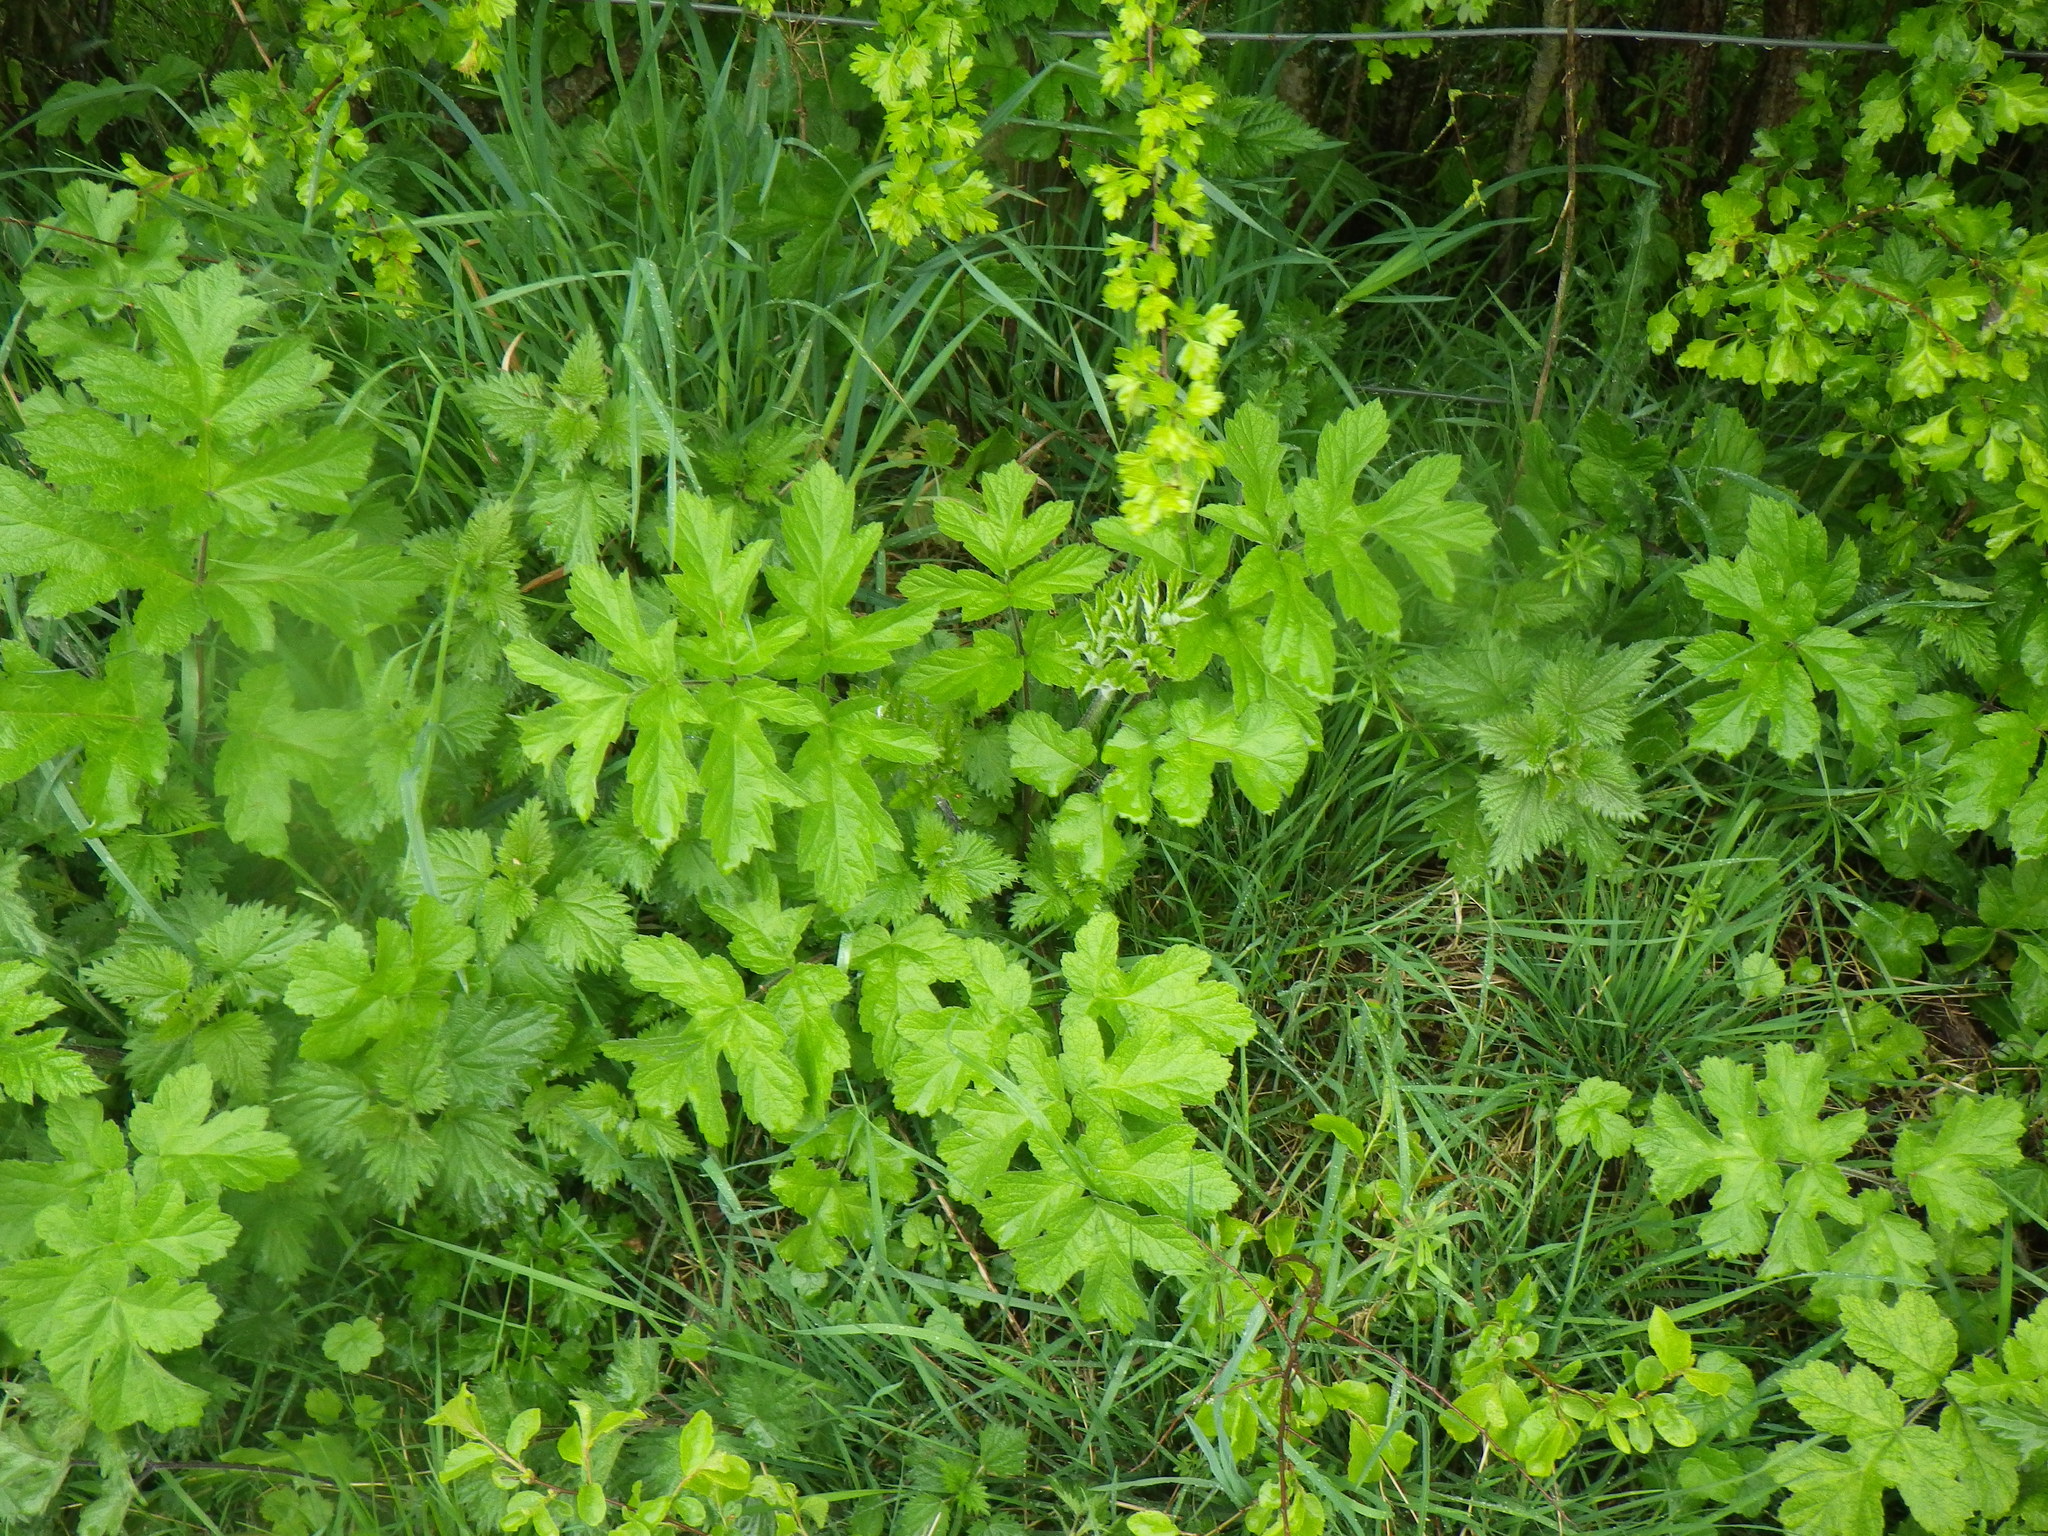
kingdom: Plantae
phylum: Tracheophyta
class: Magnoliopsida
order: Apiales
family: Apiaceae
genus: Heracleum
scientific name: Heracleum sphondylium
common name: Hogweed
